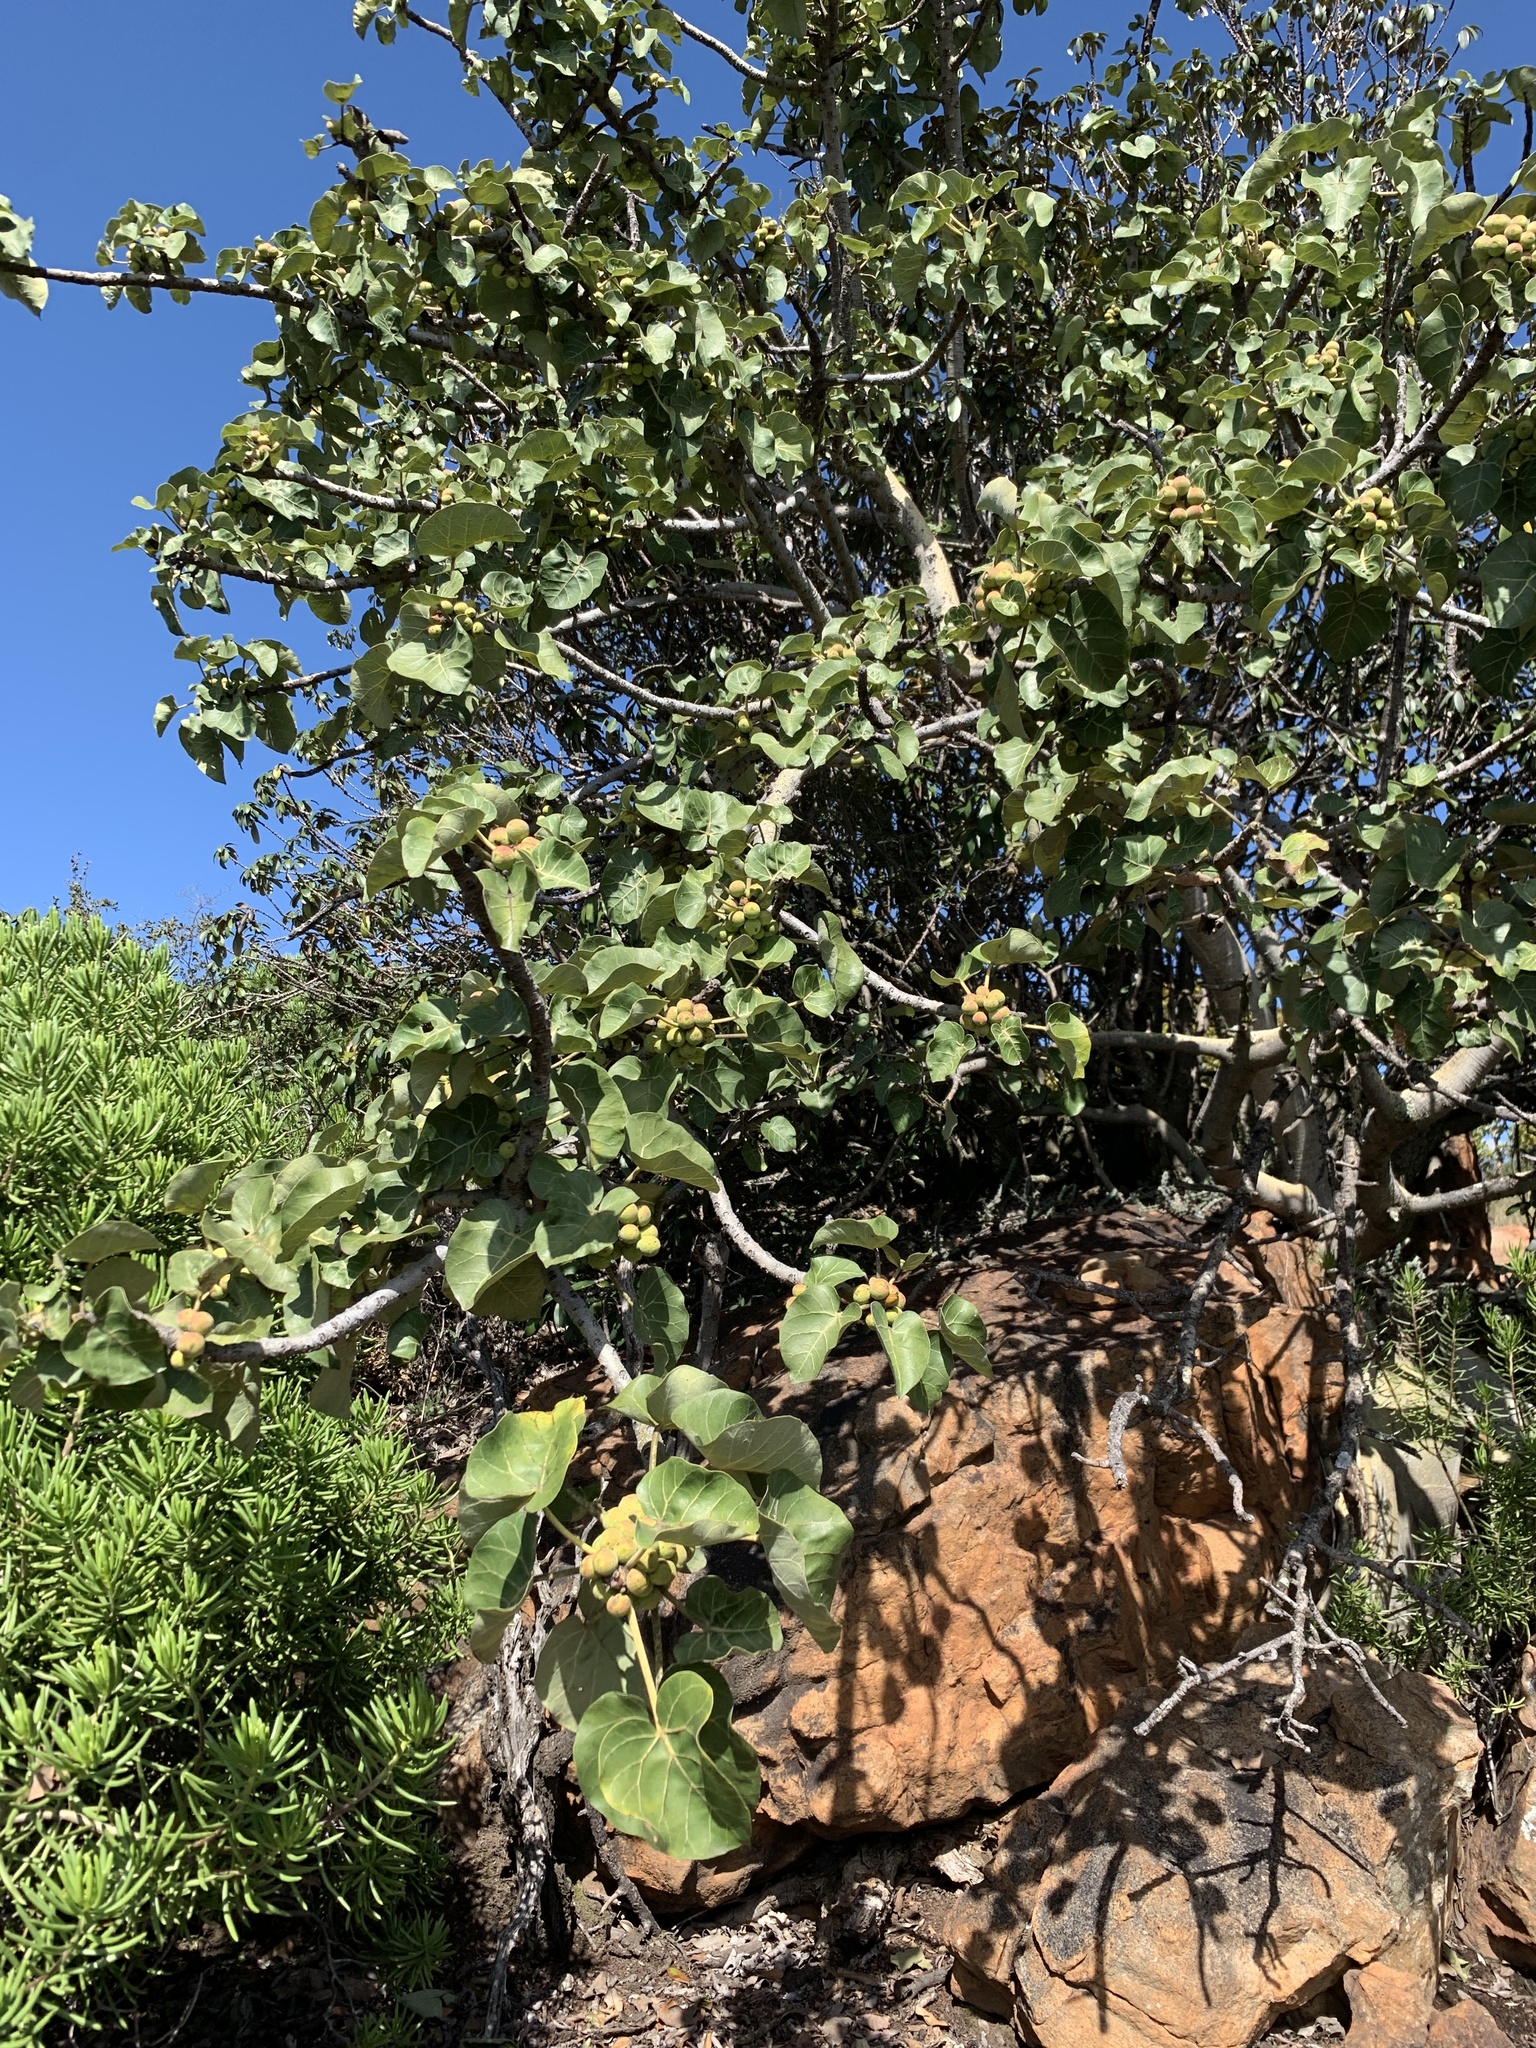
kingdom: Plantae
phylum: Tracheophyta
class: Magnoliopsida
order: Rosales
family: Moraceae
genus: Ficus
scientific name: Ficus abutilifolia
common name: Large-leaved rock fig
